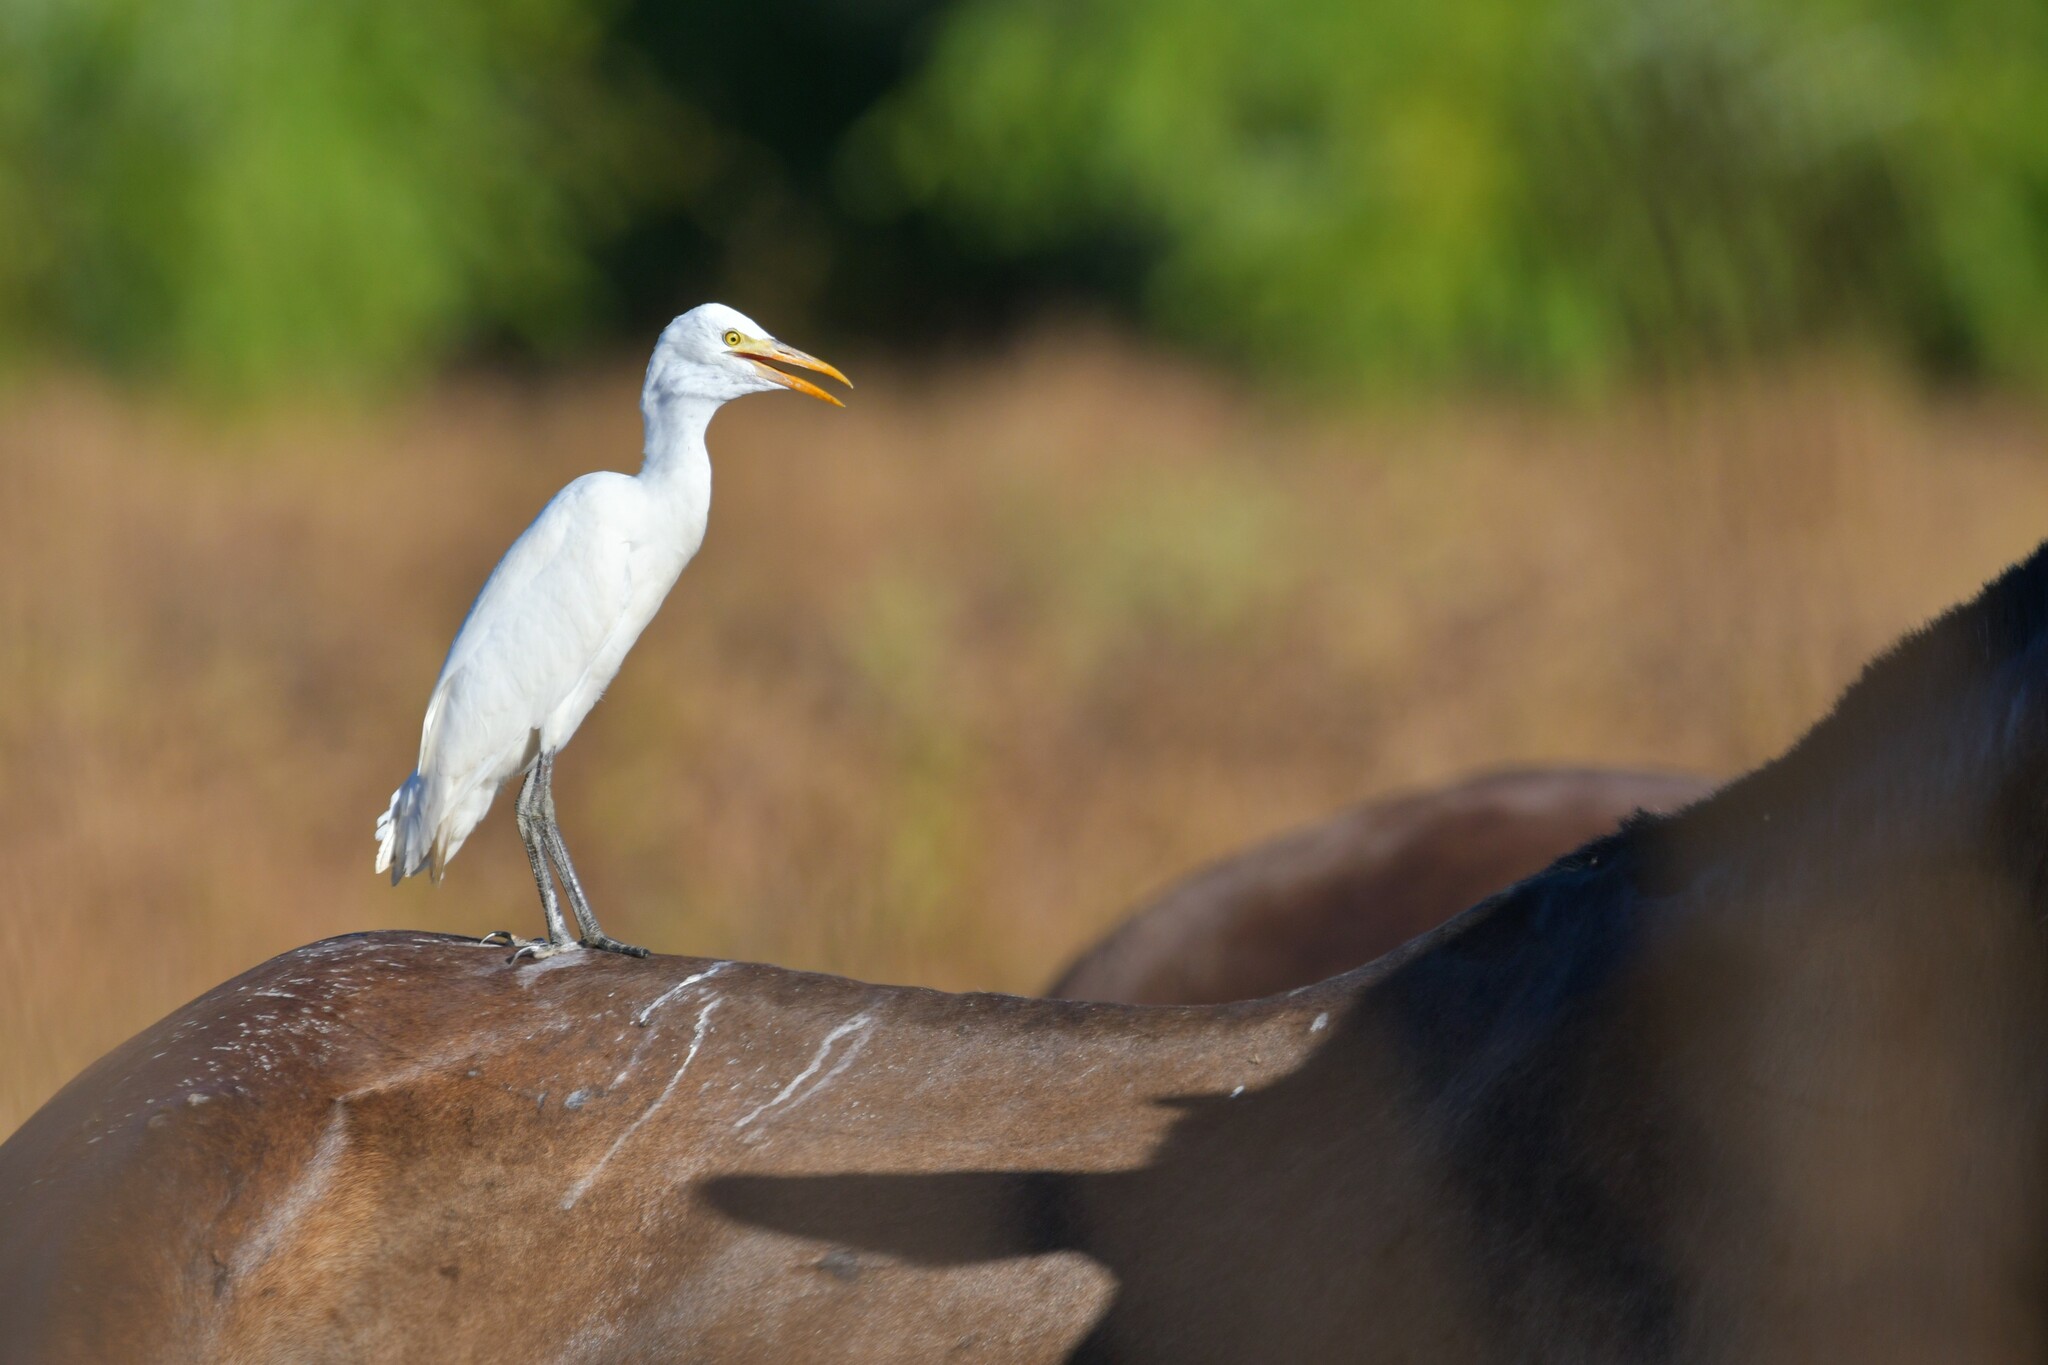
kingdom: Animalia
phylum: Chordata
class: Aves
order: Pelecaniformes
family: Ardeidae
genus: Bubulcus
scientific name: Bubulcus ibis
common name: Cattle egret
